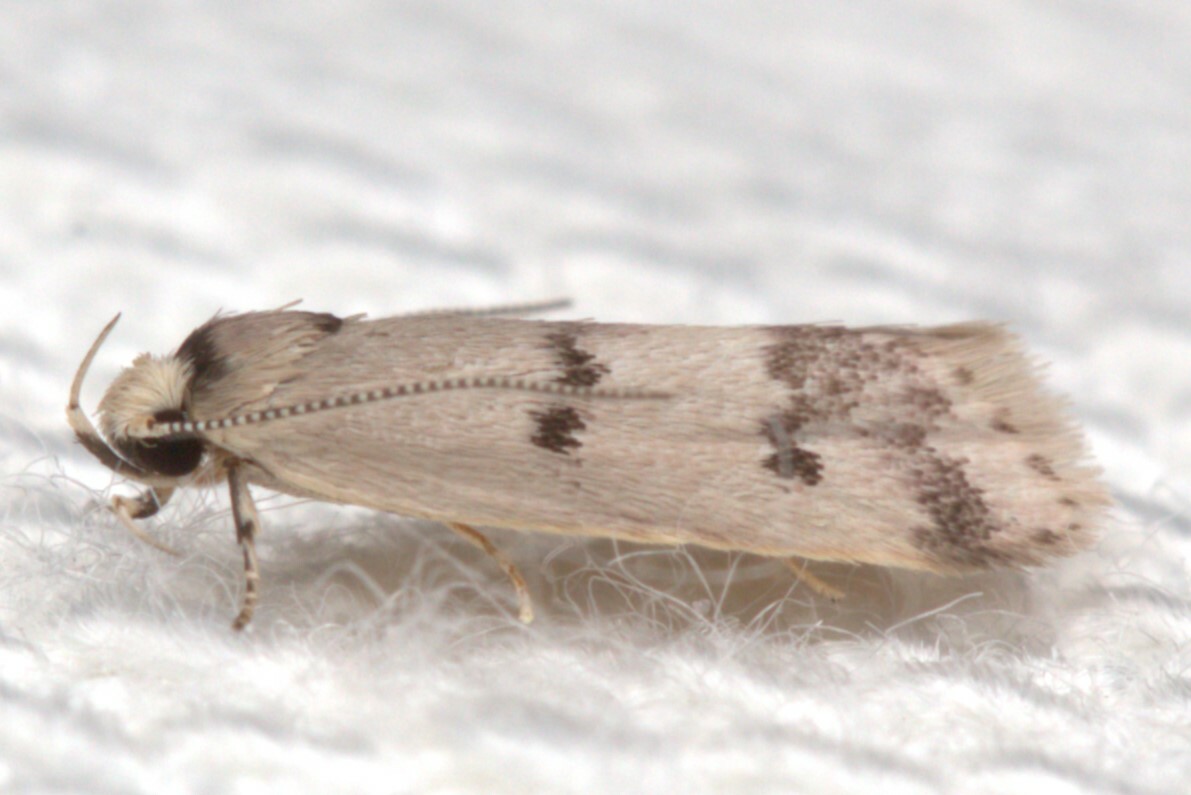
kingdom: Animalia
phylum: Arthropoda
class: Insecta
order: Lepidoptera
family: Oecophoridae
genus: Compsotropha
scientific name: Compsotropha strophiella
